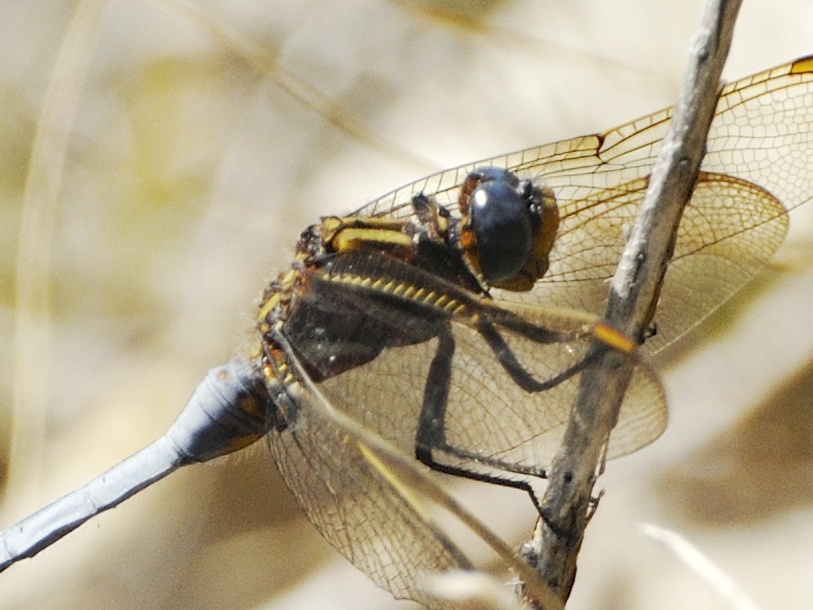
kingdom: Animalia
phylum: Arthropoda
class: Insecta
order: Odonata
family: Libellulidae
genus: Orthetrum
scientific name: Orthetrum rubens
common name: Elusive skimmer
